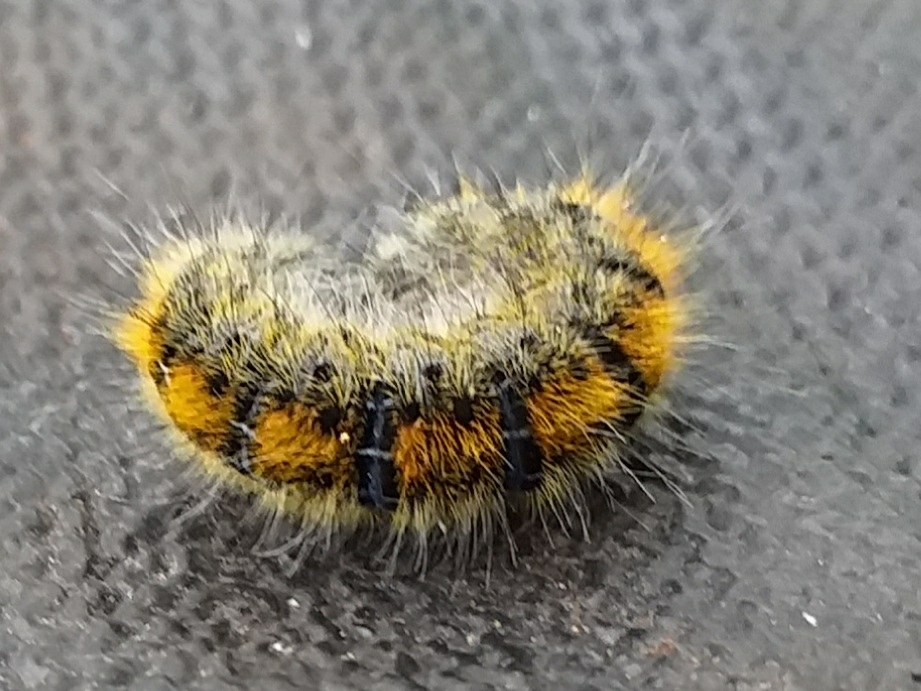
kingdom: Animalia
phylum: Arthropoda
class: Insecta
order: Lepidoptera
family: Lasiocampidae
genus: Lasiocampa
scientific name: Lasiocampa trifolii
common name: Grass eggar
